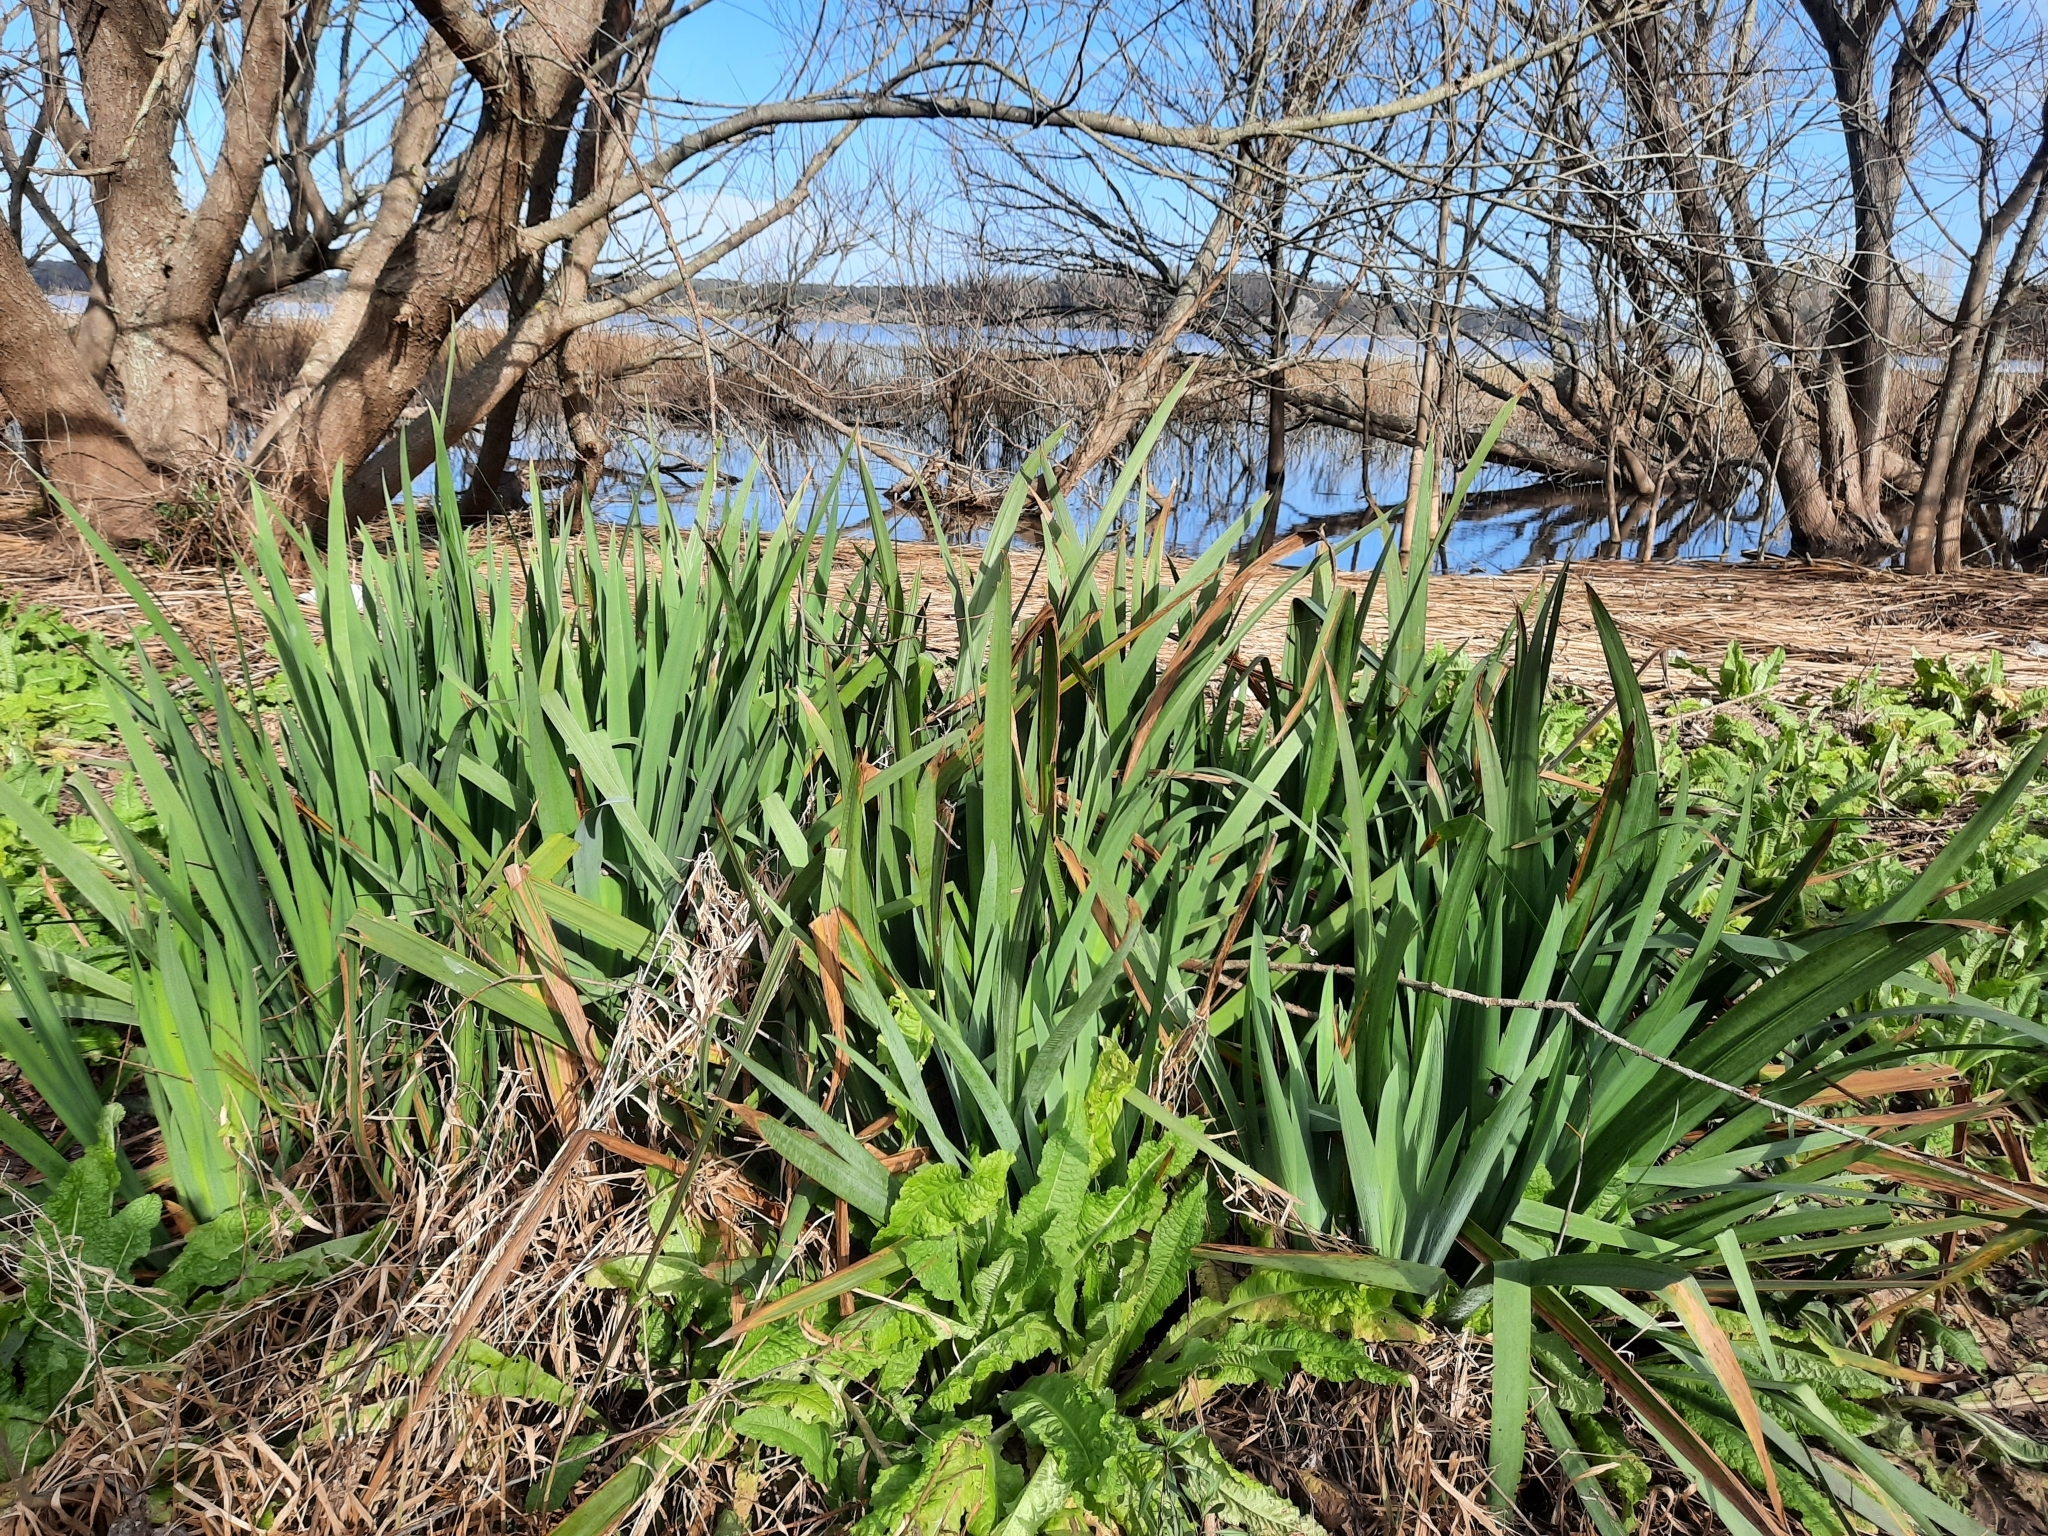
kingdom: Plantae
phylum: Tracheophyta
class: Liliopsida
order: Asparagales
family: Iridaceae
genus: Iris
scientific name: Iris pseudacorus
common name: Yellow flag
